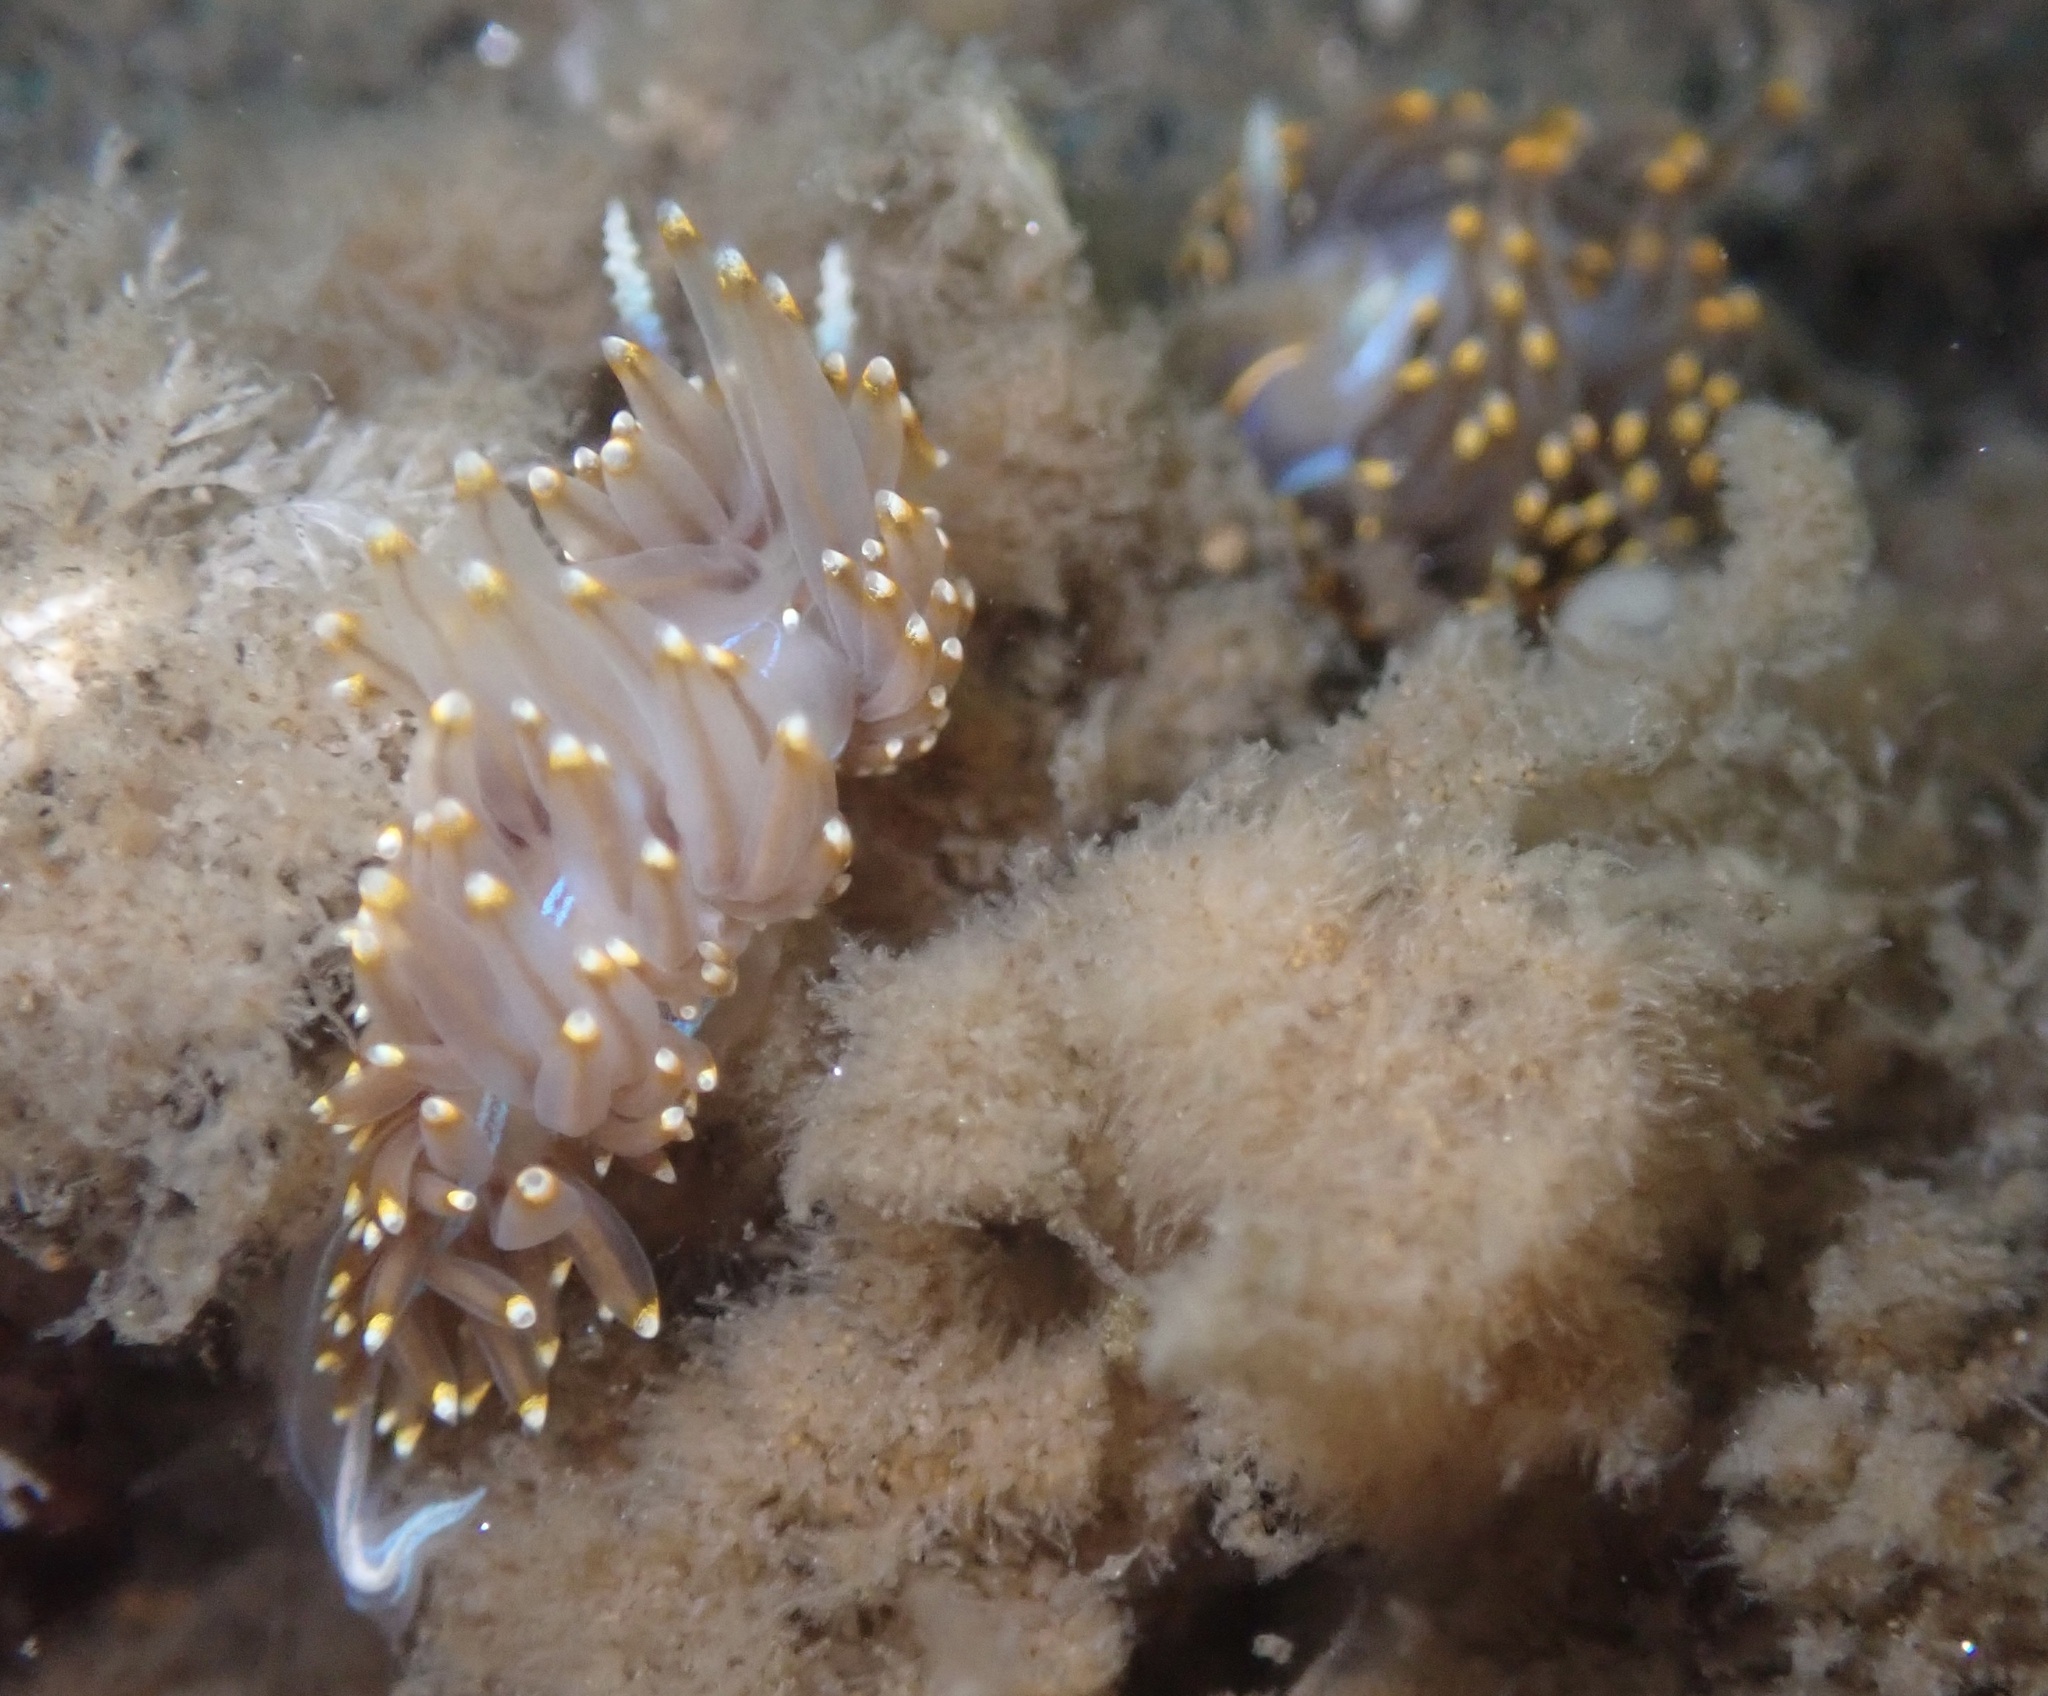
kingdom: Animalia
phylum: Mollusca
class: Gastropoda
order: Nudibranchia
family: Myrrhinidae
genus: Hermissenda
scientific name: Hermissenda opalescens
